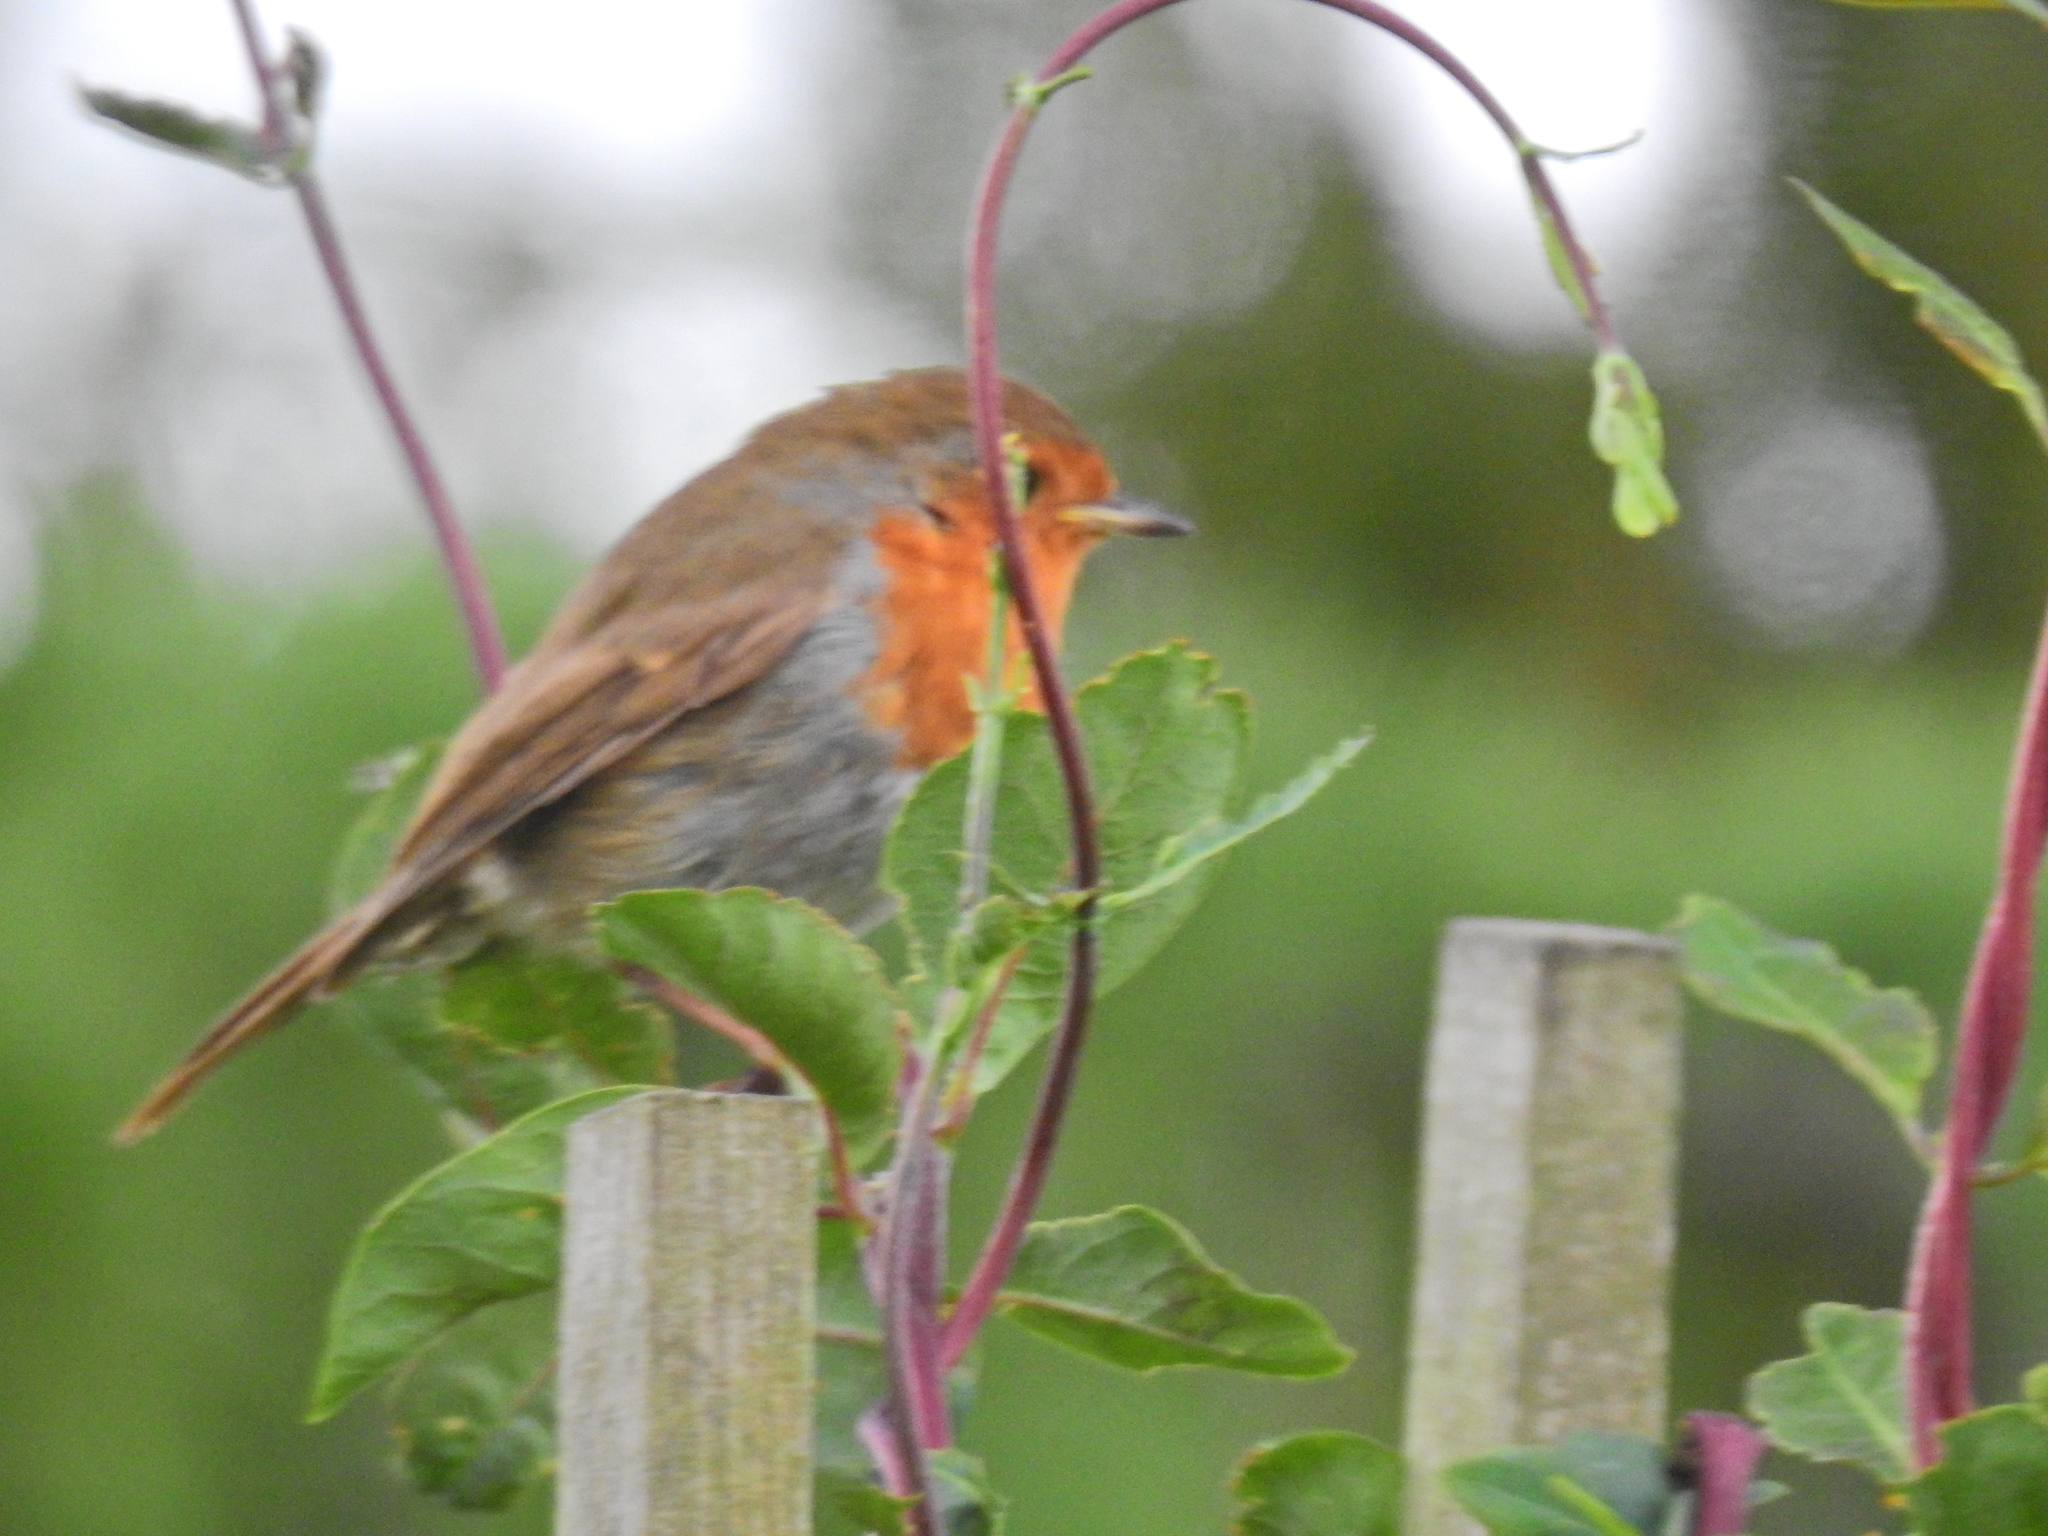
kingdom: Animalia
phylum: Chordata
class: Aves
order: Passeriformes
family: Muscicapidae
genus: Erithacus
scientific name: Erithacus rubecula
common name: European robin
